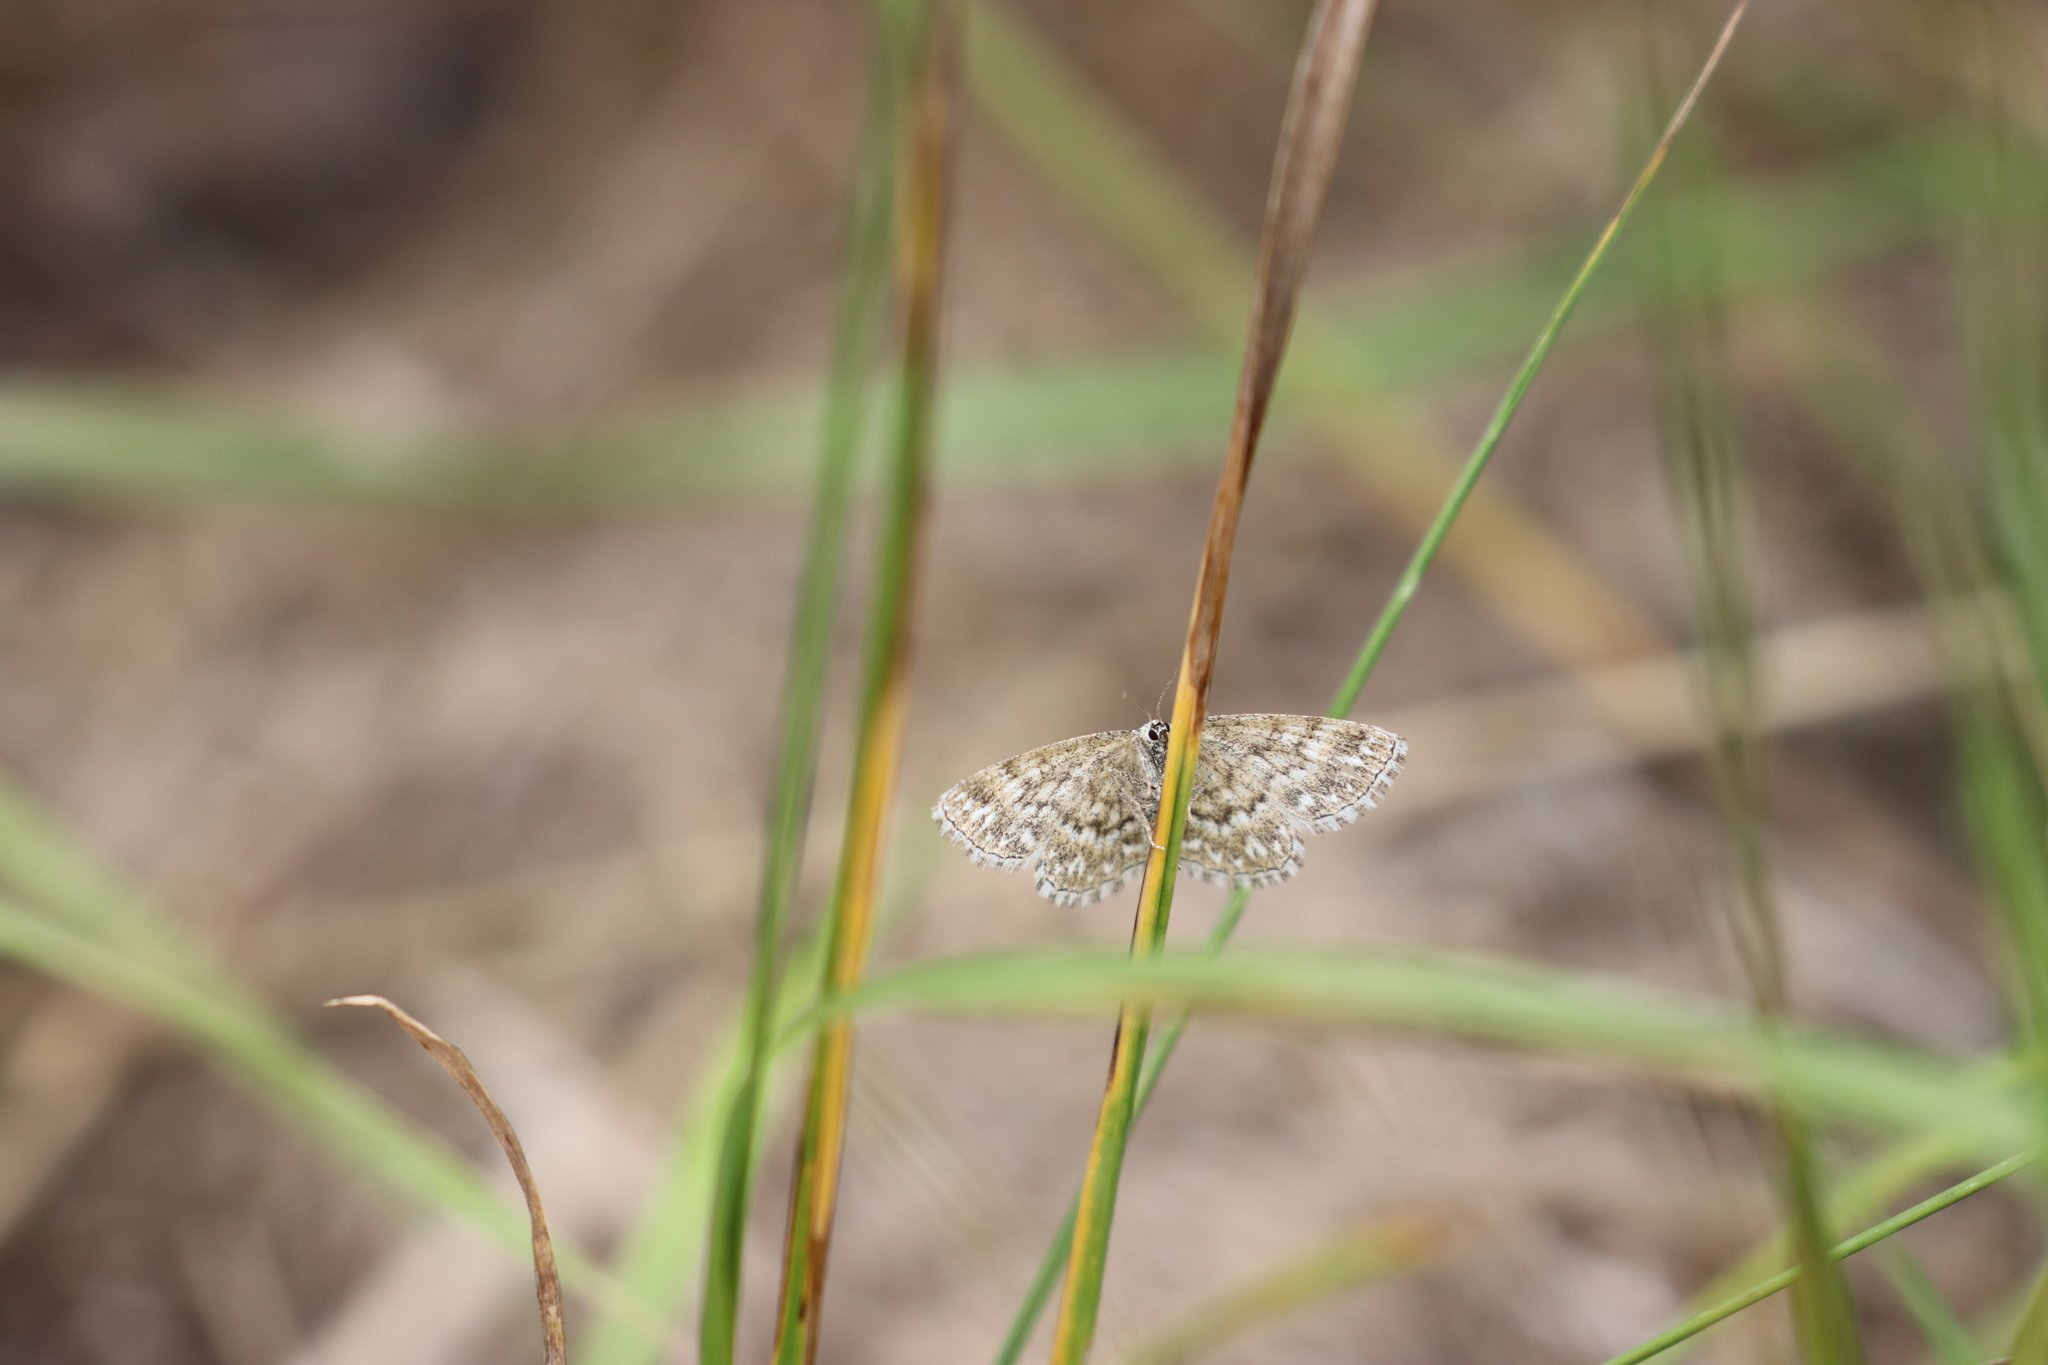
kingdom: Animalia
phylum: Arthropoda
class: Insecta
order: Lepidoptera
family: Geometridae
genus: Scopula
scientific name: Scopula immorata
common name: Lewes wave
